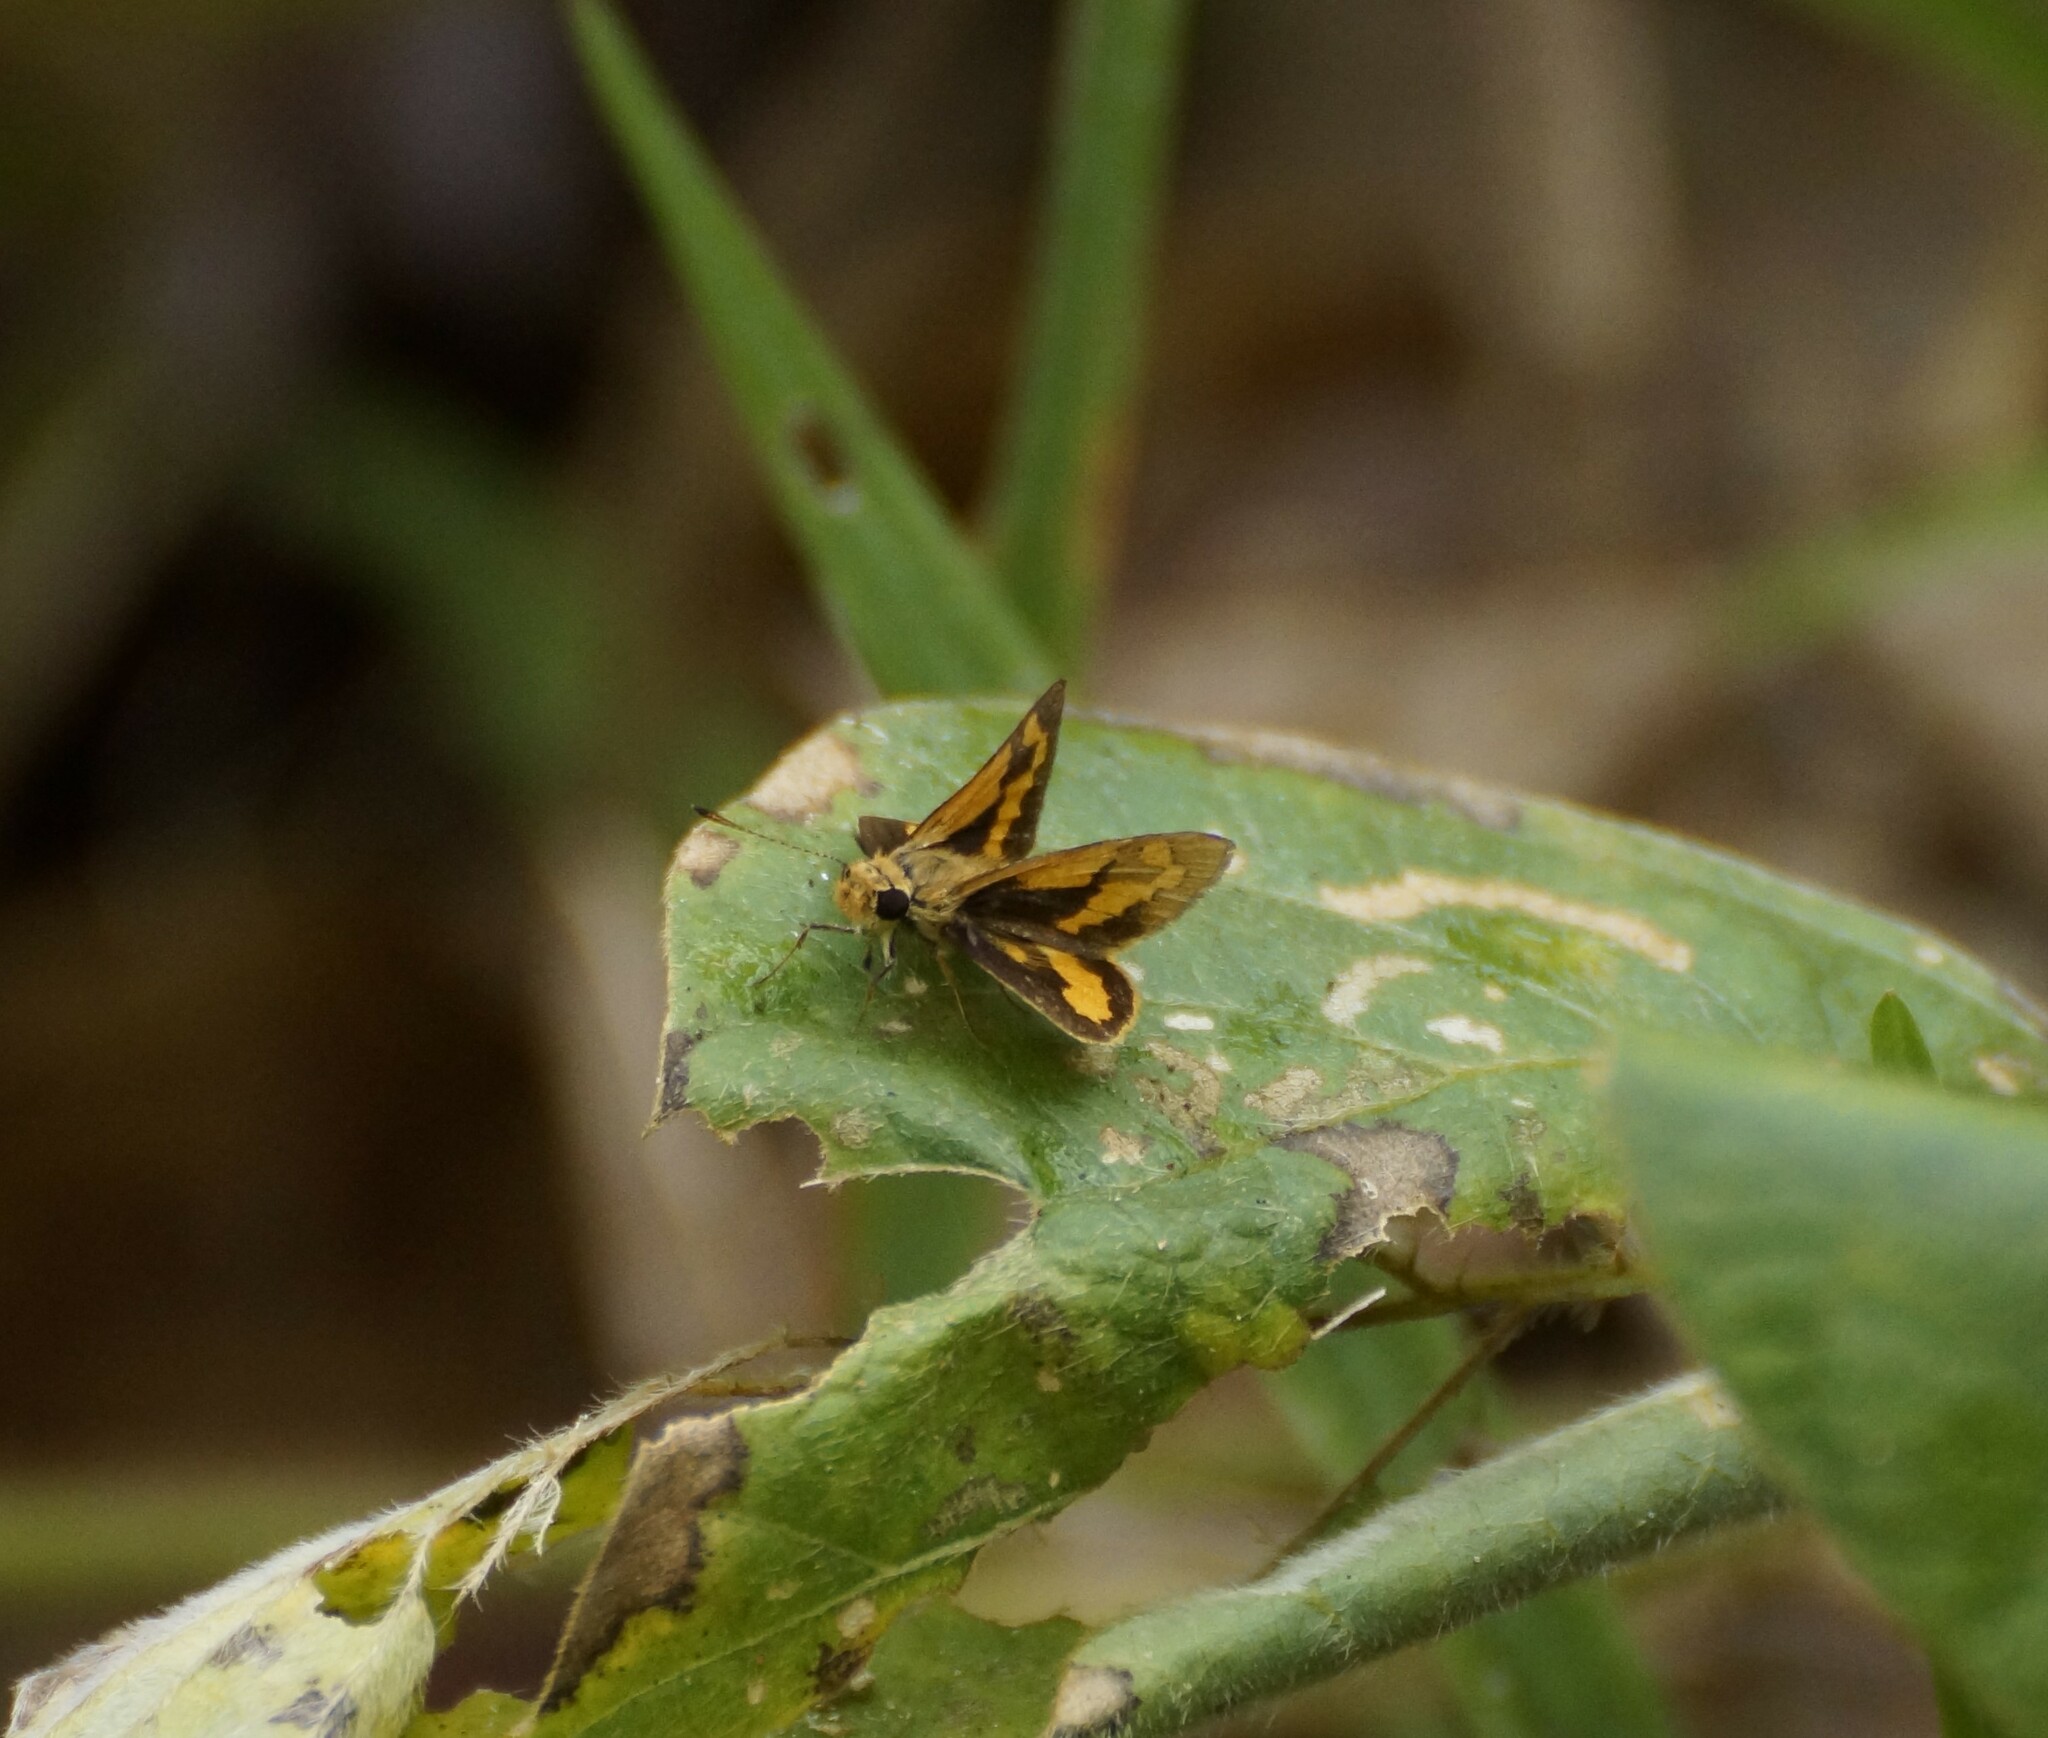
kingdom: Animalia
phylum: Arthropoda
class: Insecta
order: Lepidoptera
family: Hesperiidae
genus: Ocybadistes
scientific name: Ocybadistes ardea
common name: Dark orange dart
